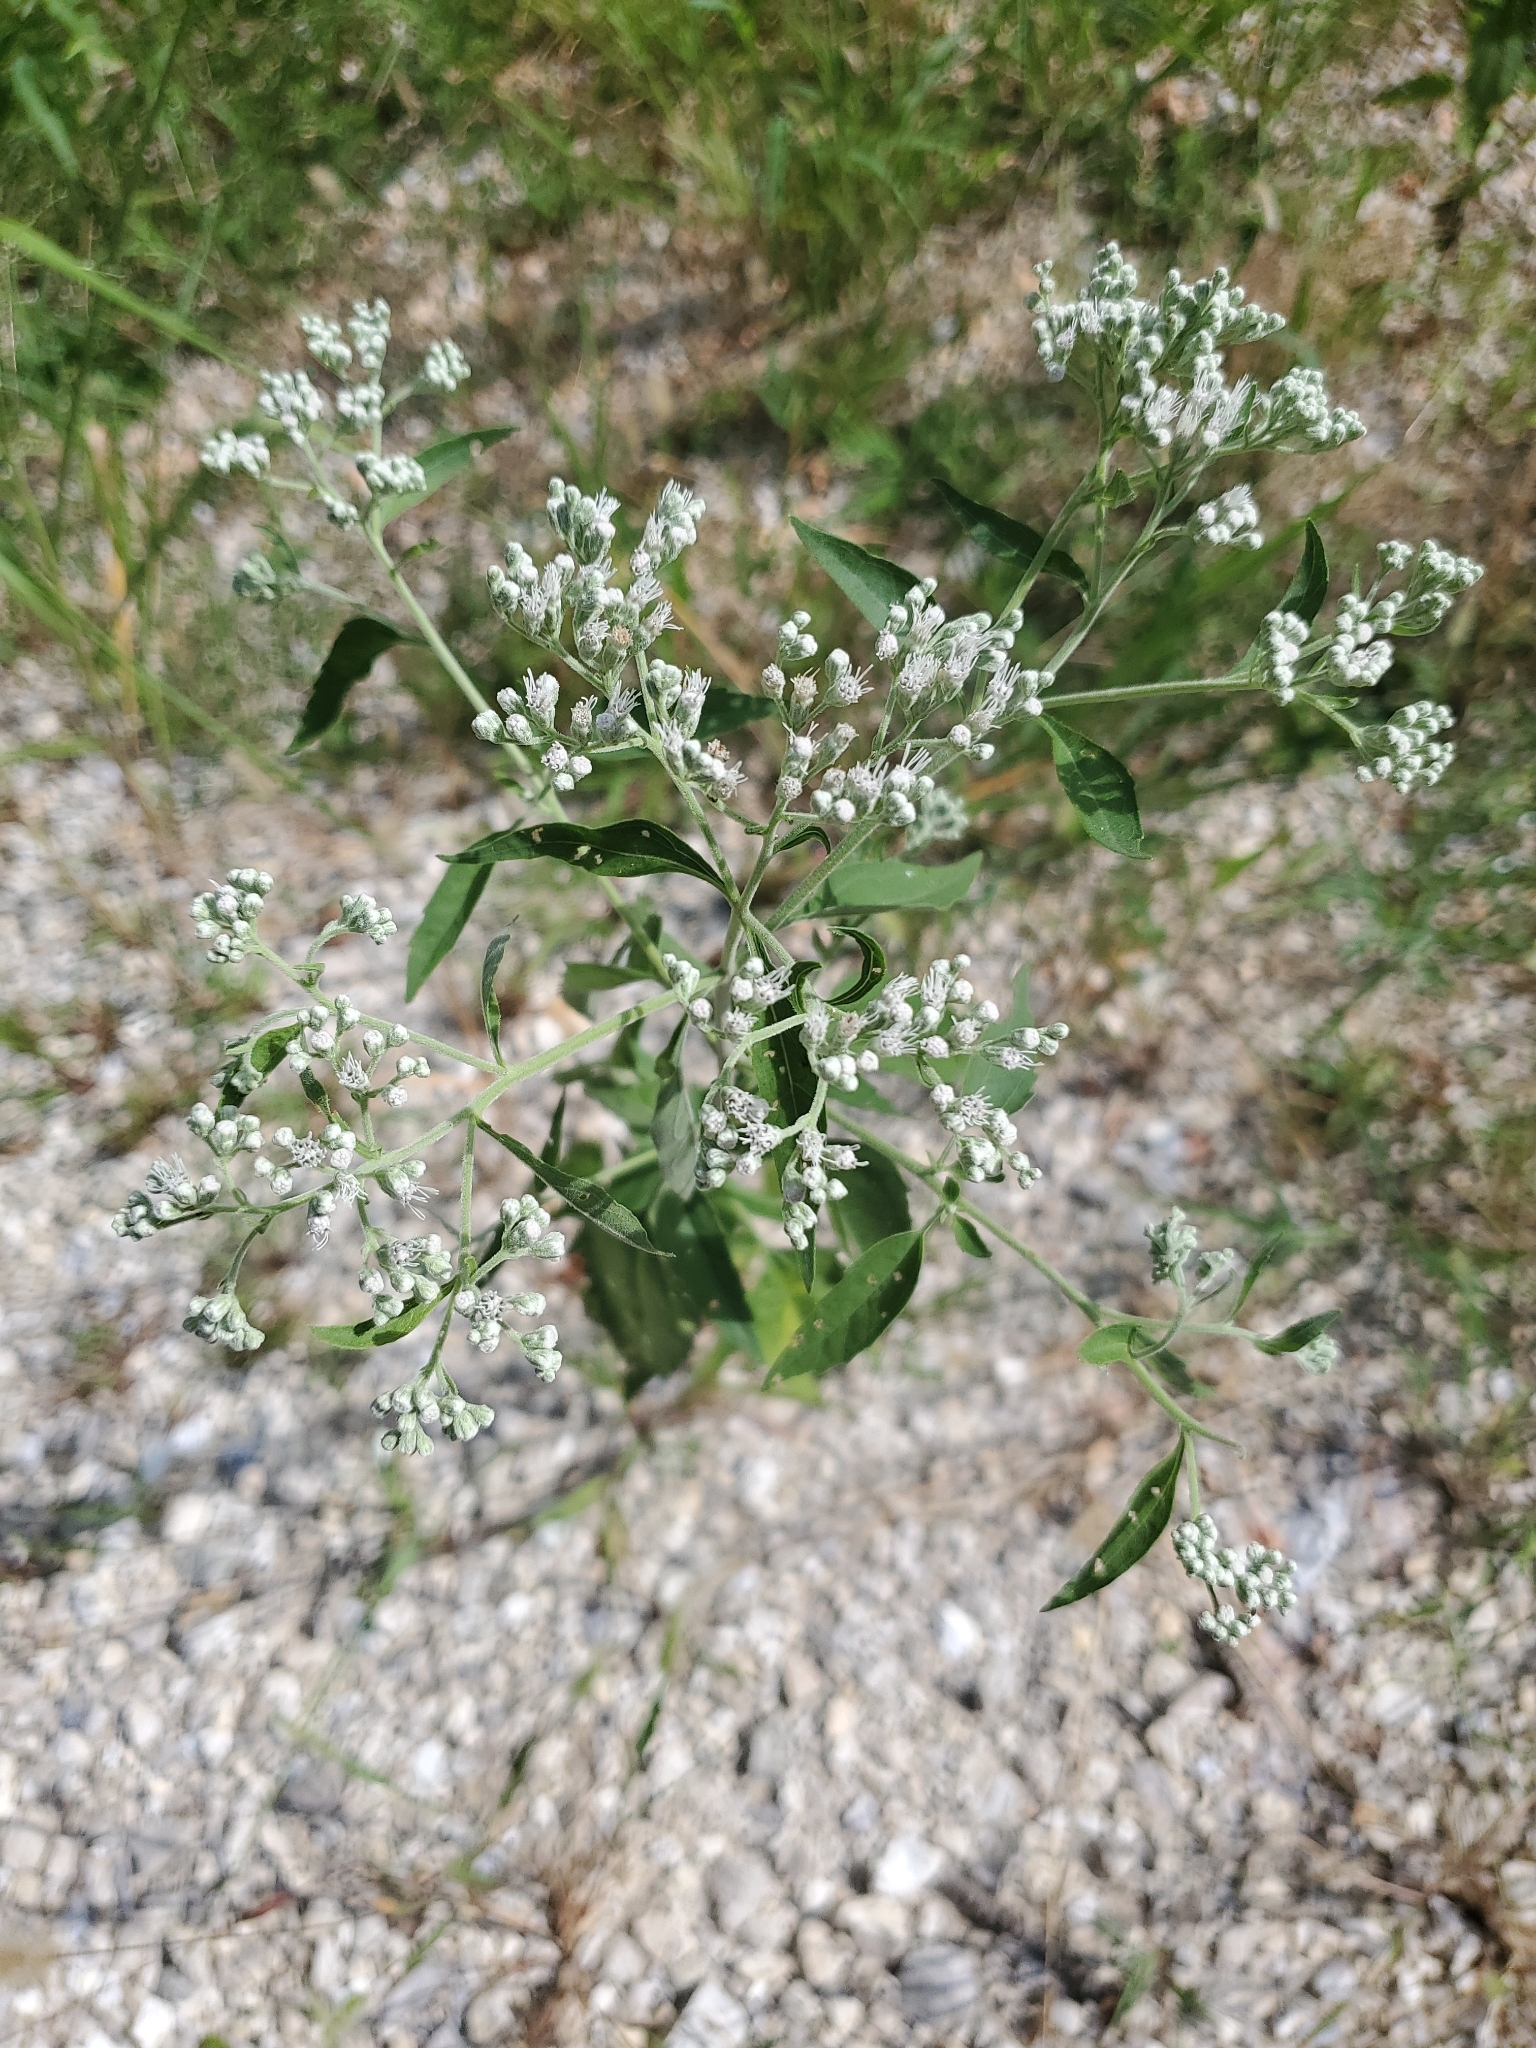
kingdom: Plantae
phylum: Tracheophyta
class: Magnoliopsida
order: Asterales
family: Asteraceae
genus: Eupatorium
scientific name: Eupatorium serotinum
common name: Late boneset
